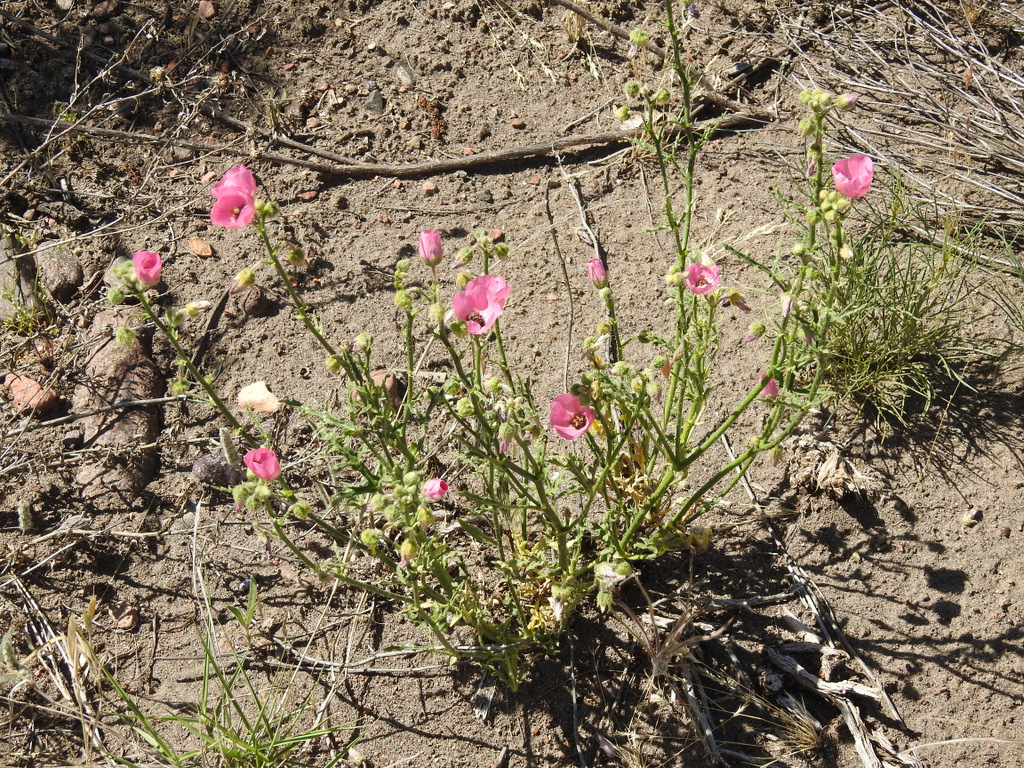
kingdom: Plantae
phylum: Tracheophyta
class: Magnoliopsida
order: Malvales
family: Malvaceae
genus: Lecanophora
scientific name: Lecanophora heterophylla
